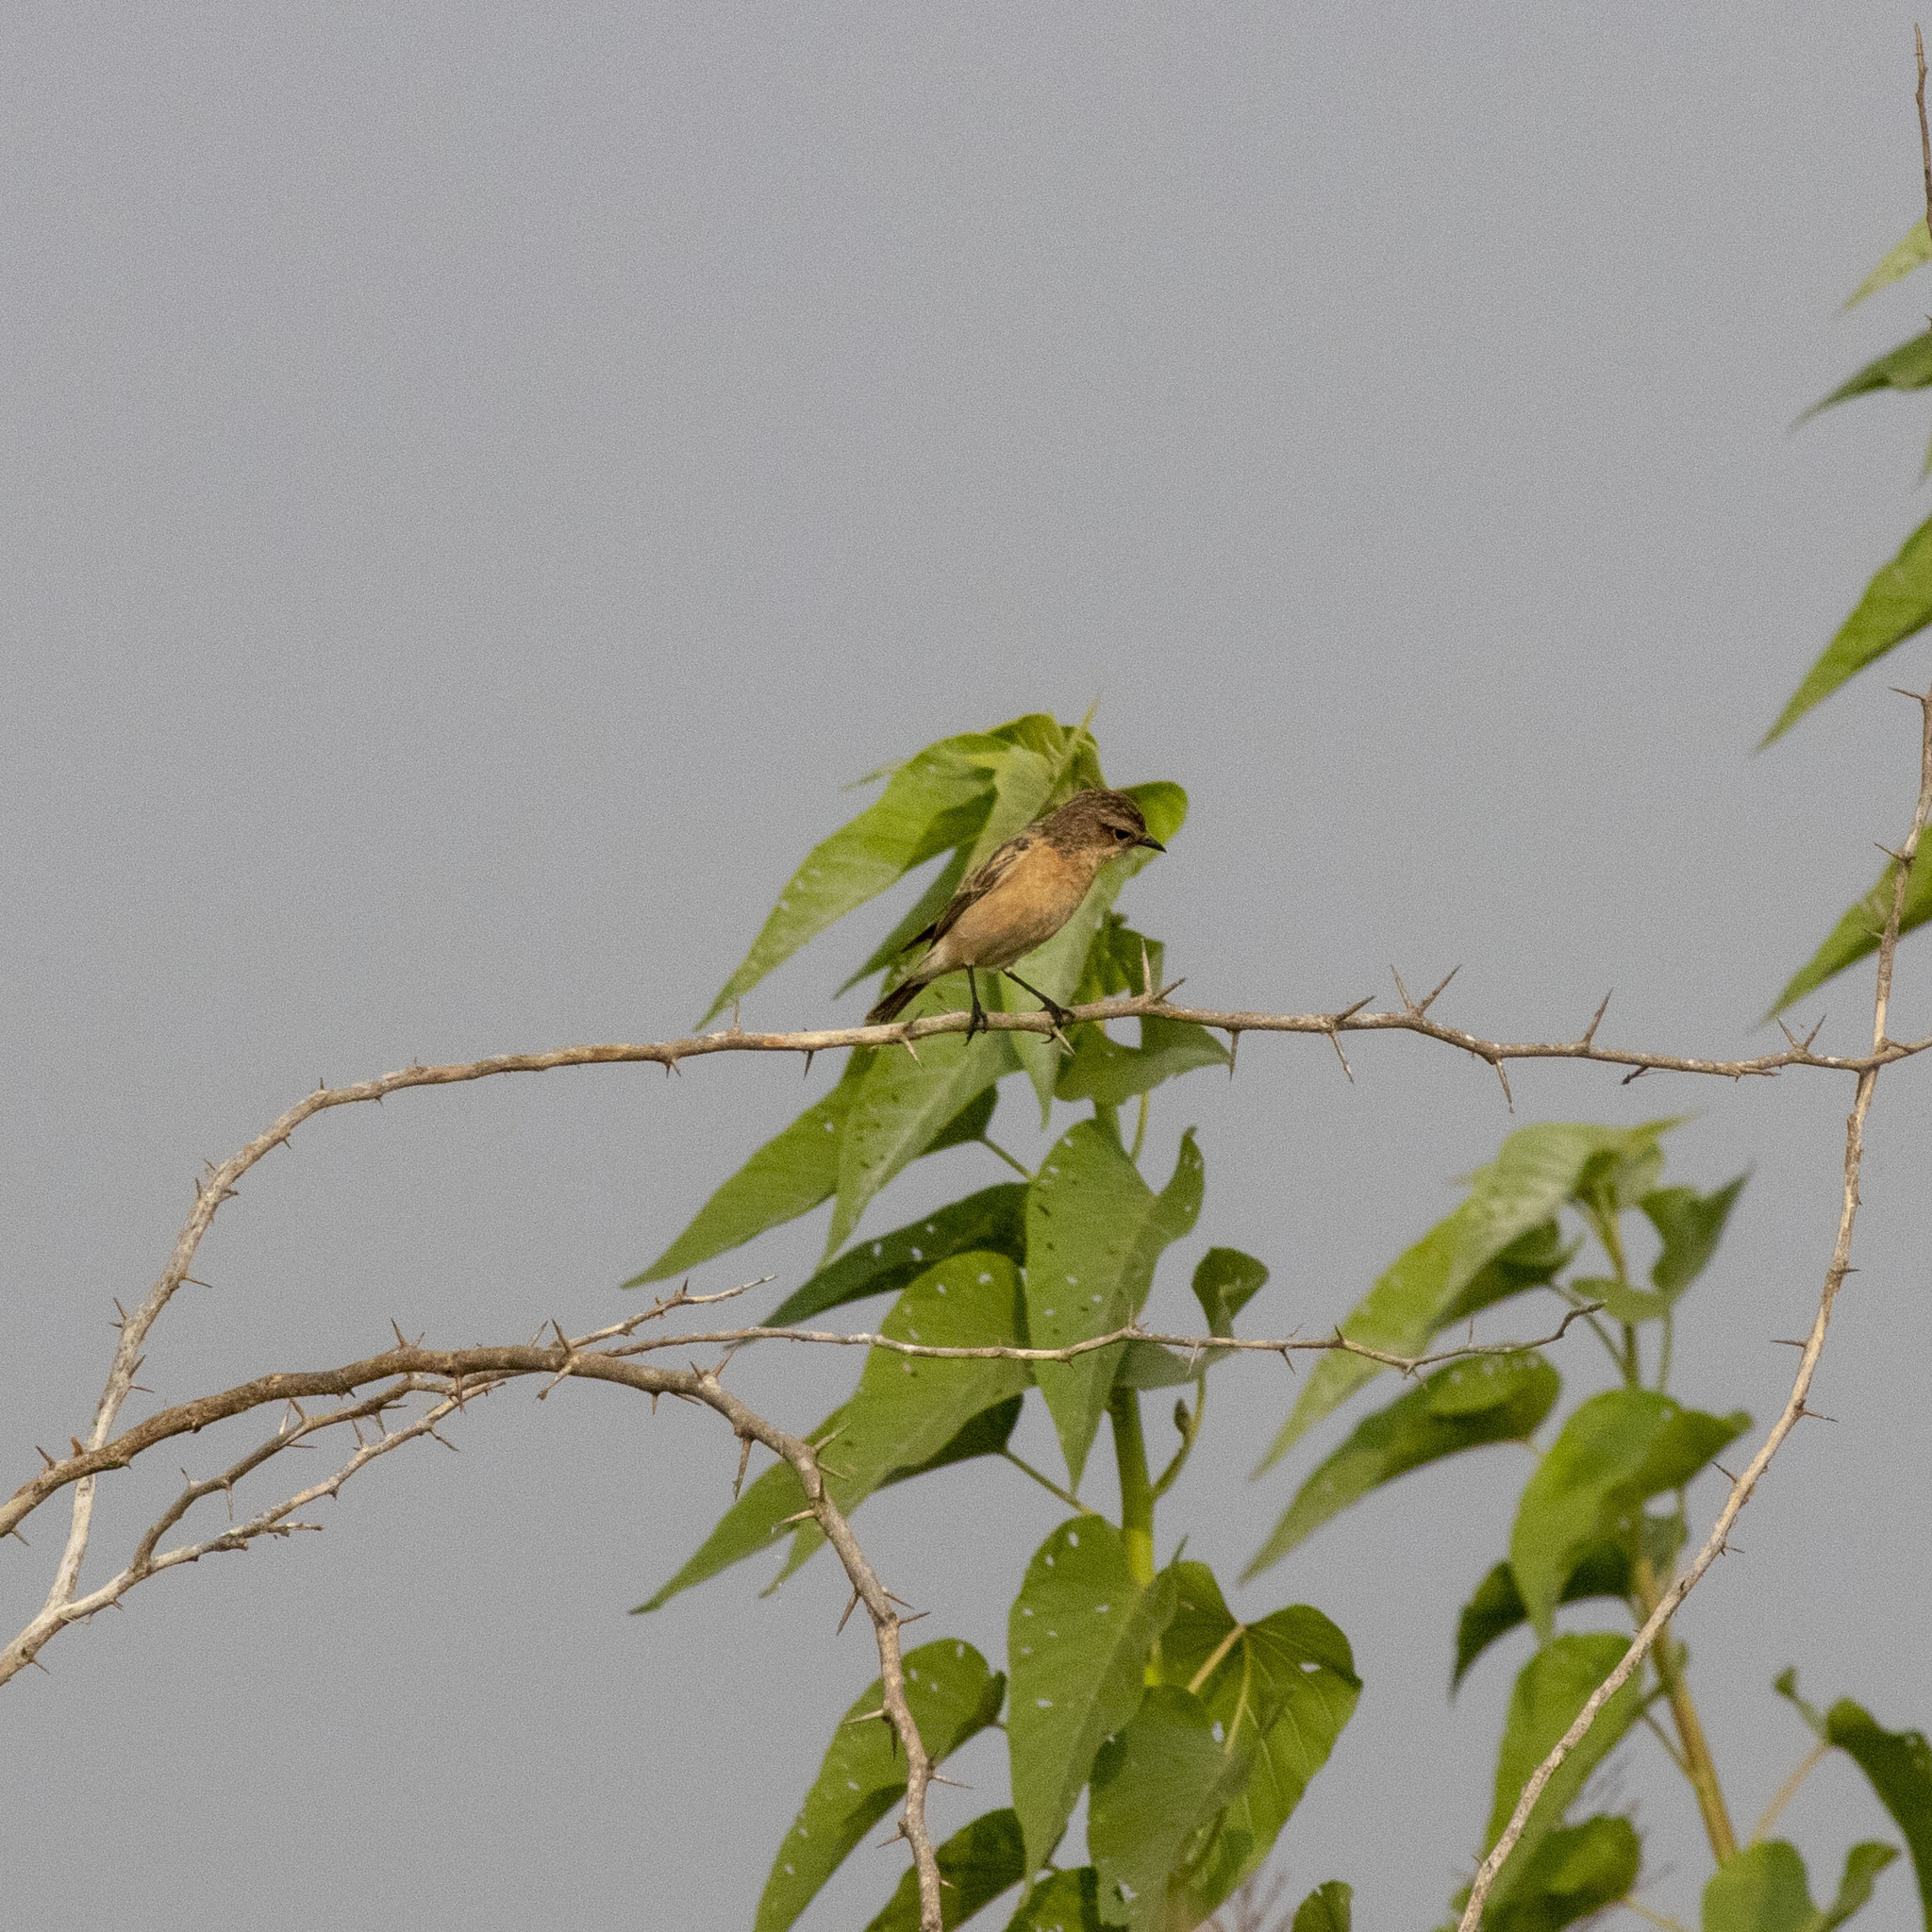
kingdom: Animalia
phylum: Chordata
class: Aves
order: Passeriformes
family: Muscicapidae
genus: Saxicola
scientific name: Saxicola maurus
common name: Siberian stonechat
